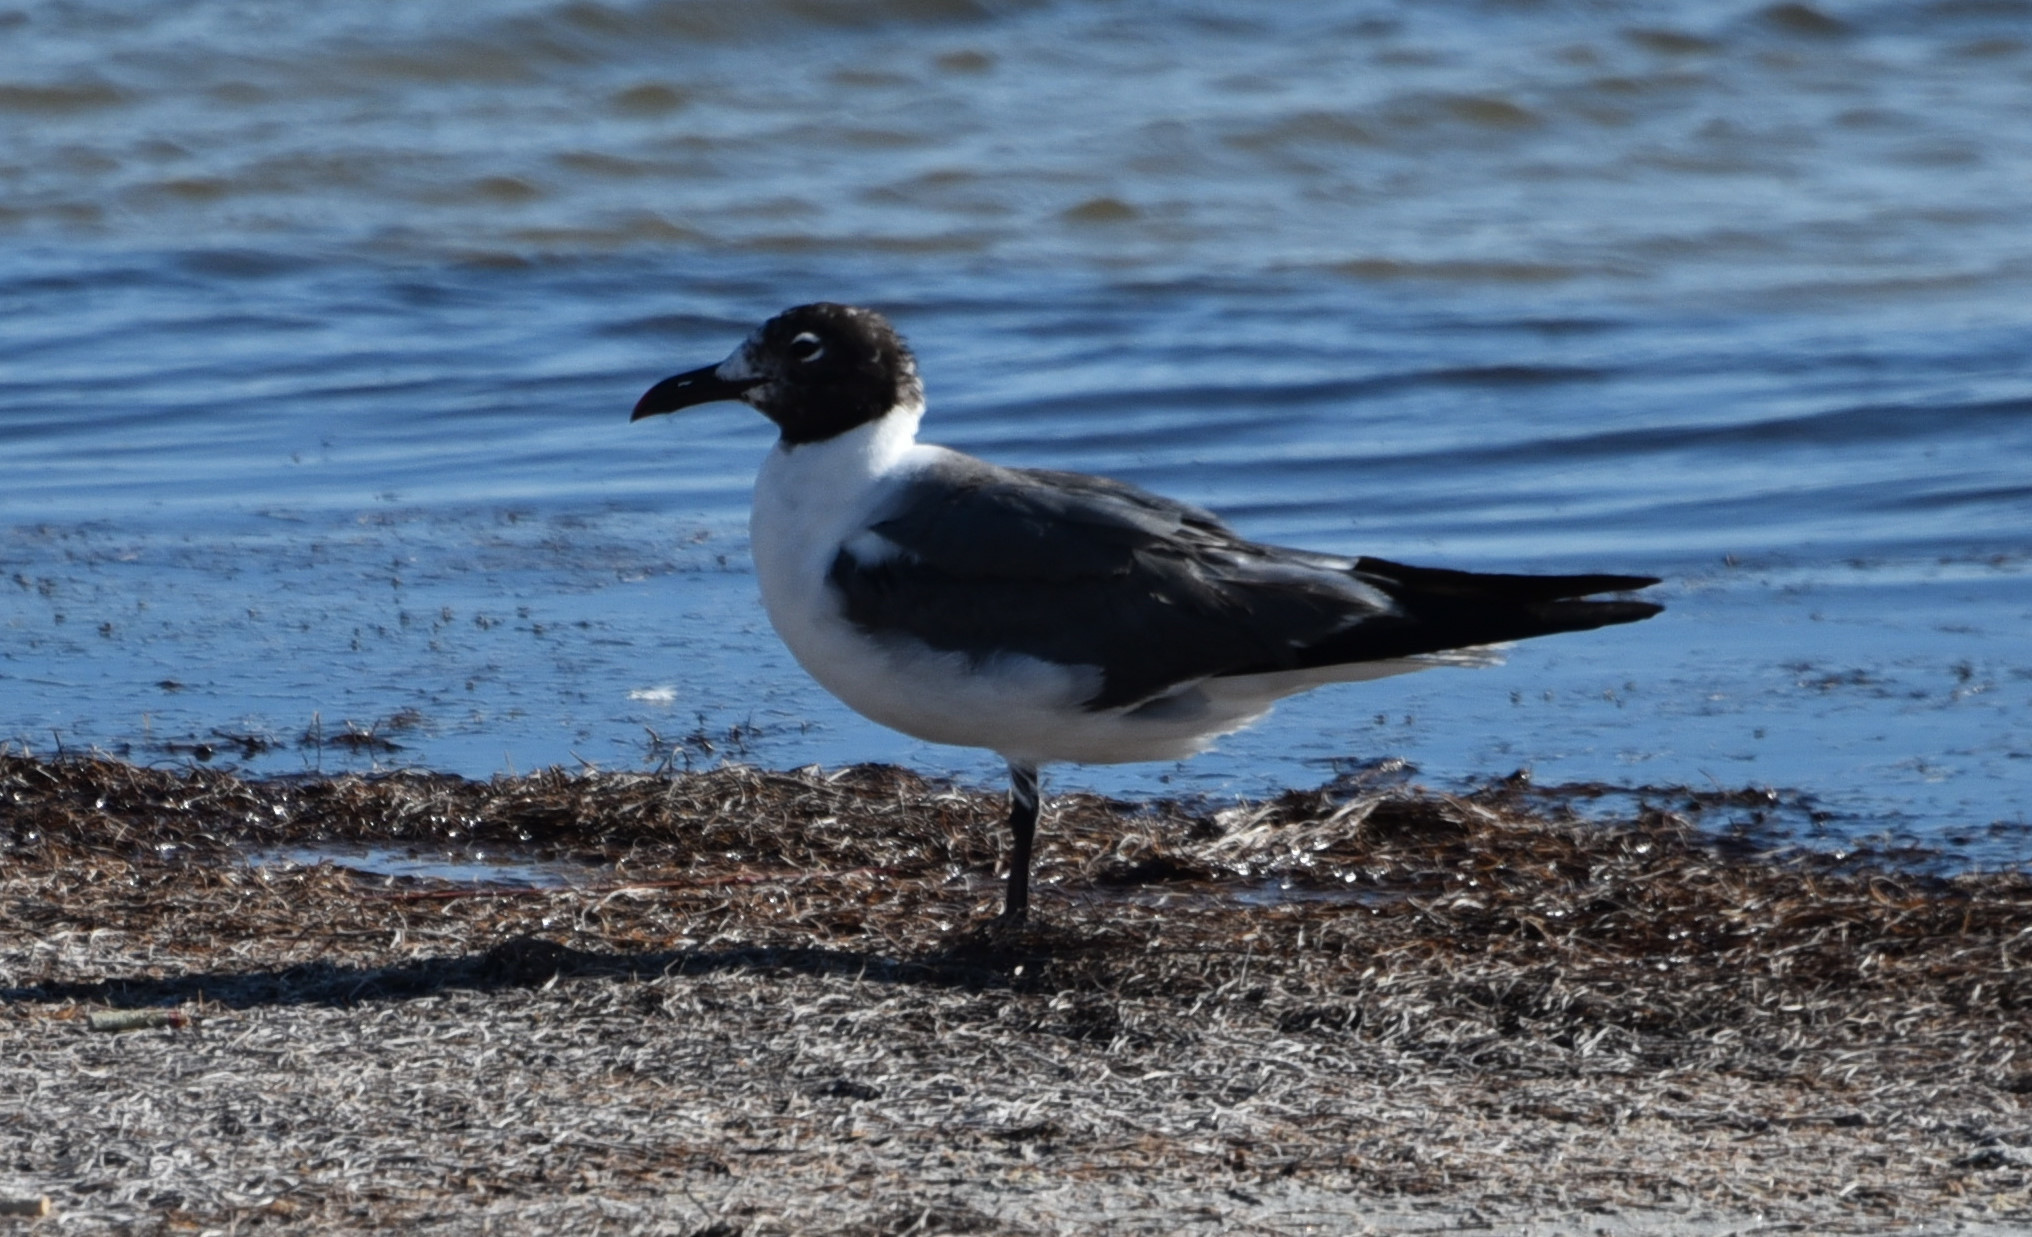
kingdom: Animalia
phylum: Chordata
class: Aves
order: Charadriiformes
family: Laridae
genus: Leucophaeus
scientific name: Leucophaeus atricilla
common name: Laughing gull
